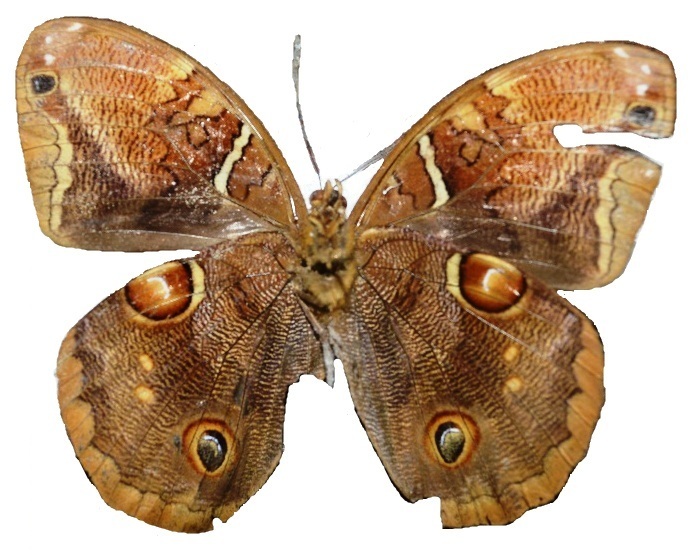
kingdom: Animalia
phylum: Arthropoda
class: Insecta
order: Lepidoptera
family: Nymphalidae
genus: Opoptera
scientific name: Opoptera staudingeri
